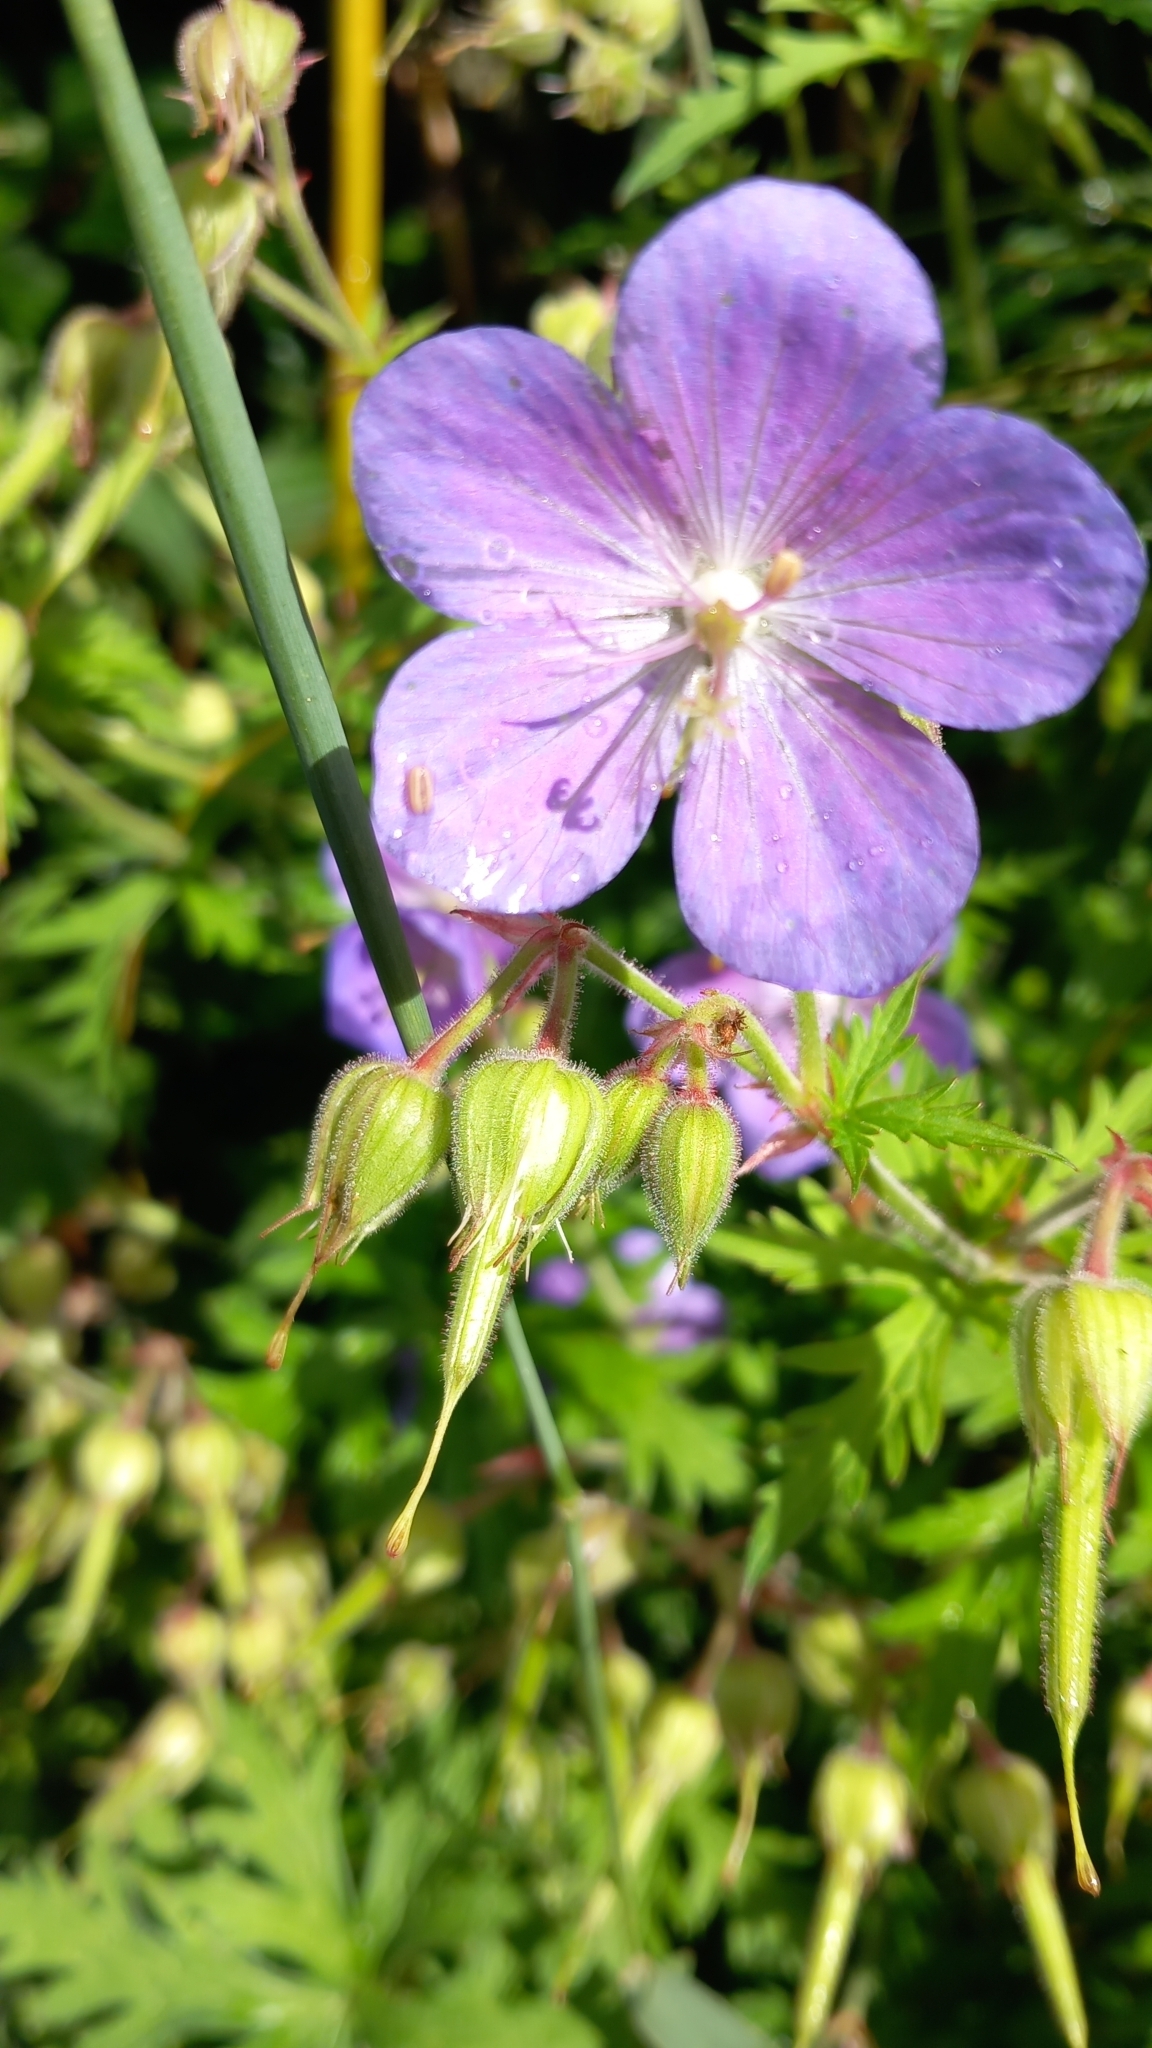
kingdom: Plantae
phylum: Tracheophyta
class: Magnoliopsida
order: Geraniales
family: Geraniaceae
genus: Geranium
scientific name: Geranium pratense
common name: Meadow crane's-bill
